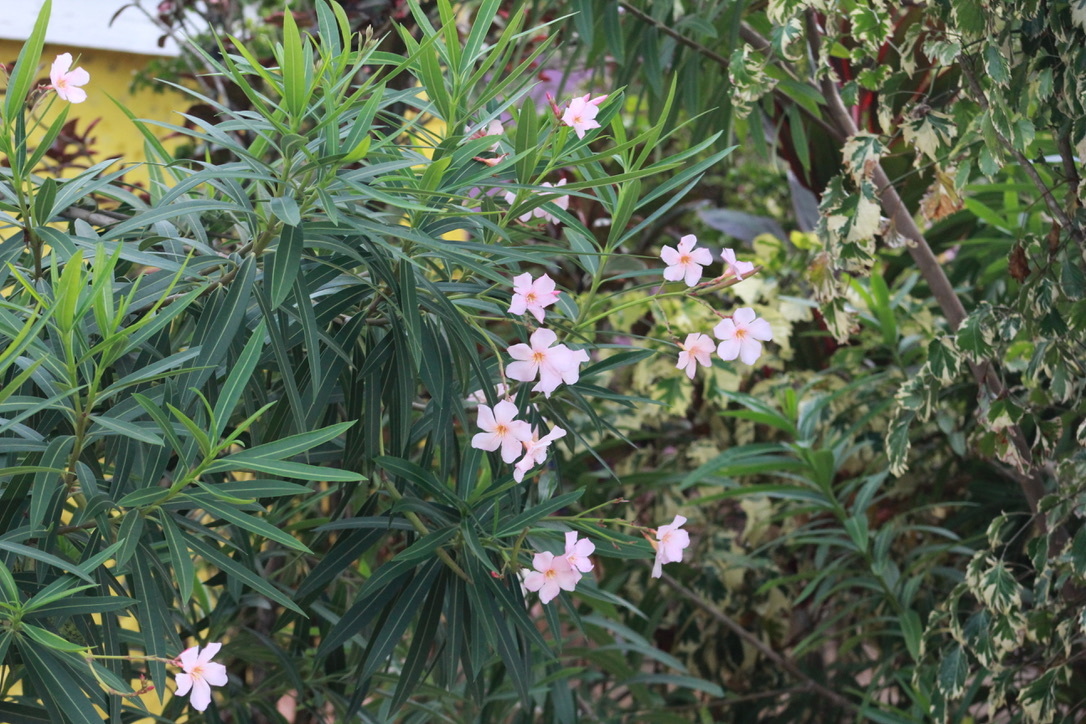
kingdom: Plantae
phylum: Tracheophyta
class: Magnoliopsida
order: Gentianales
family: Apocynaceae
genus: Nerium
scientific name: Nerium oleander
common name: Oleander
